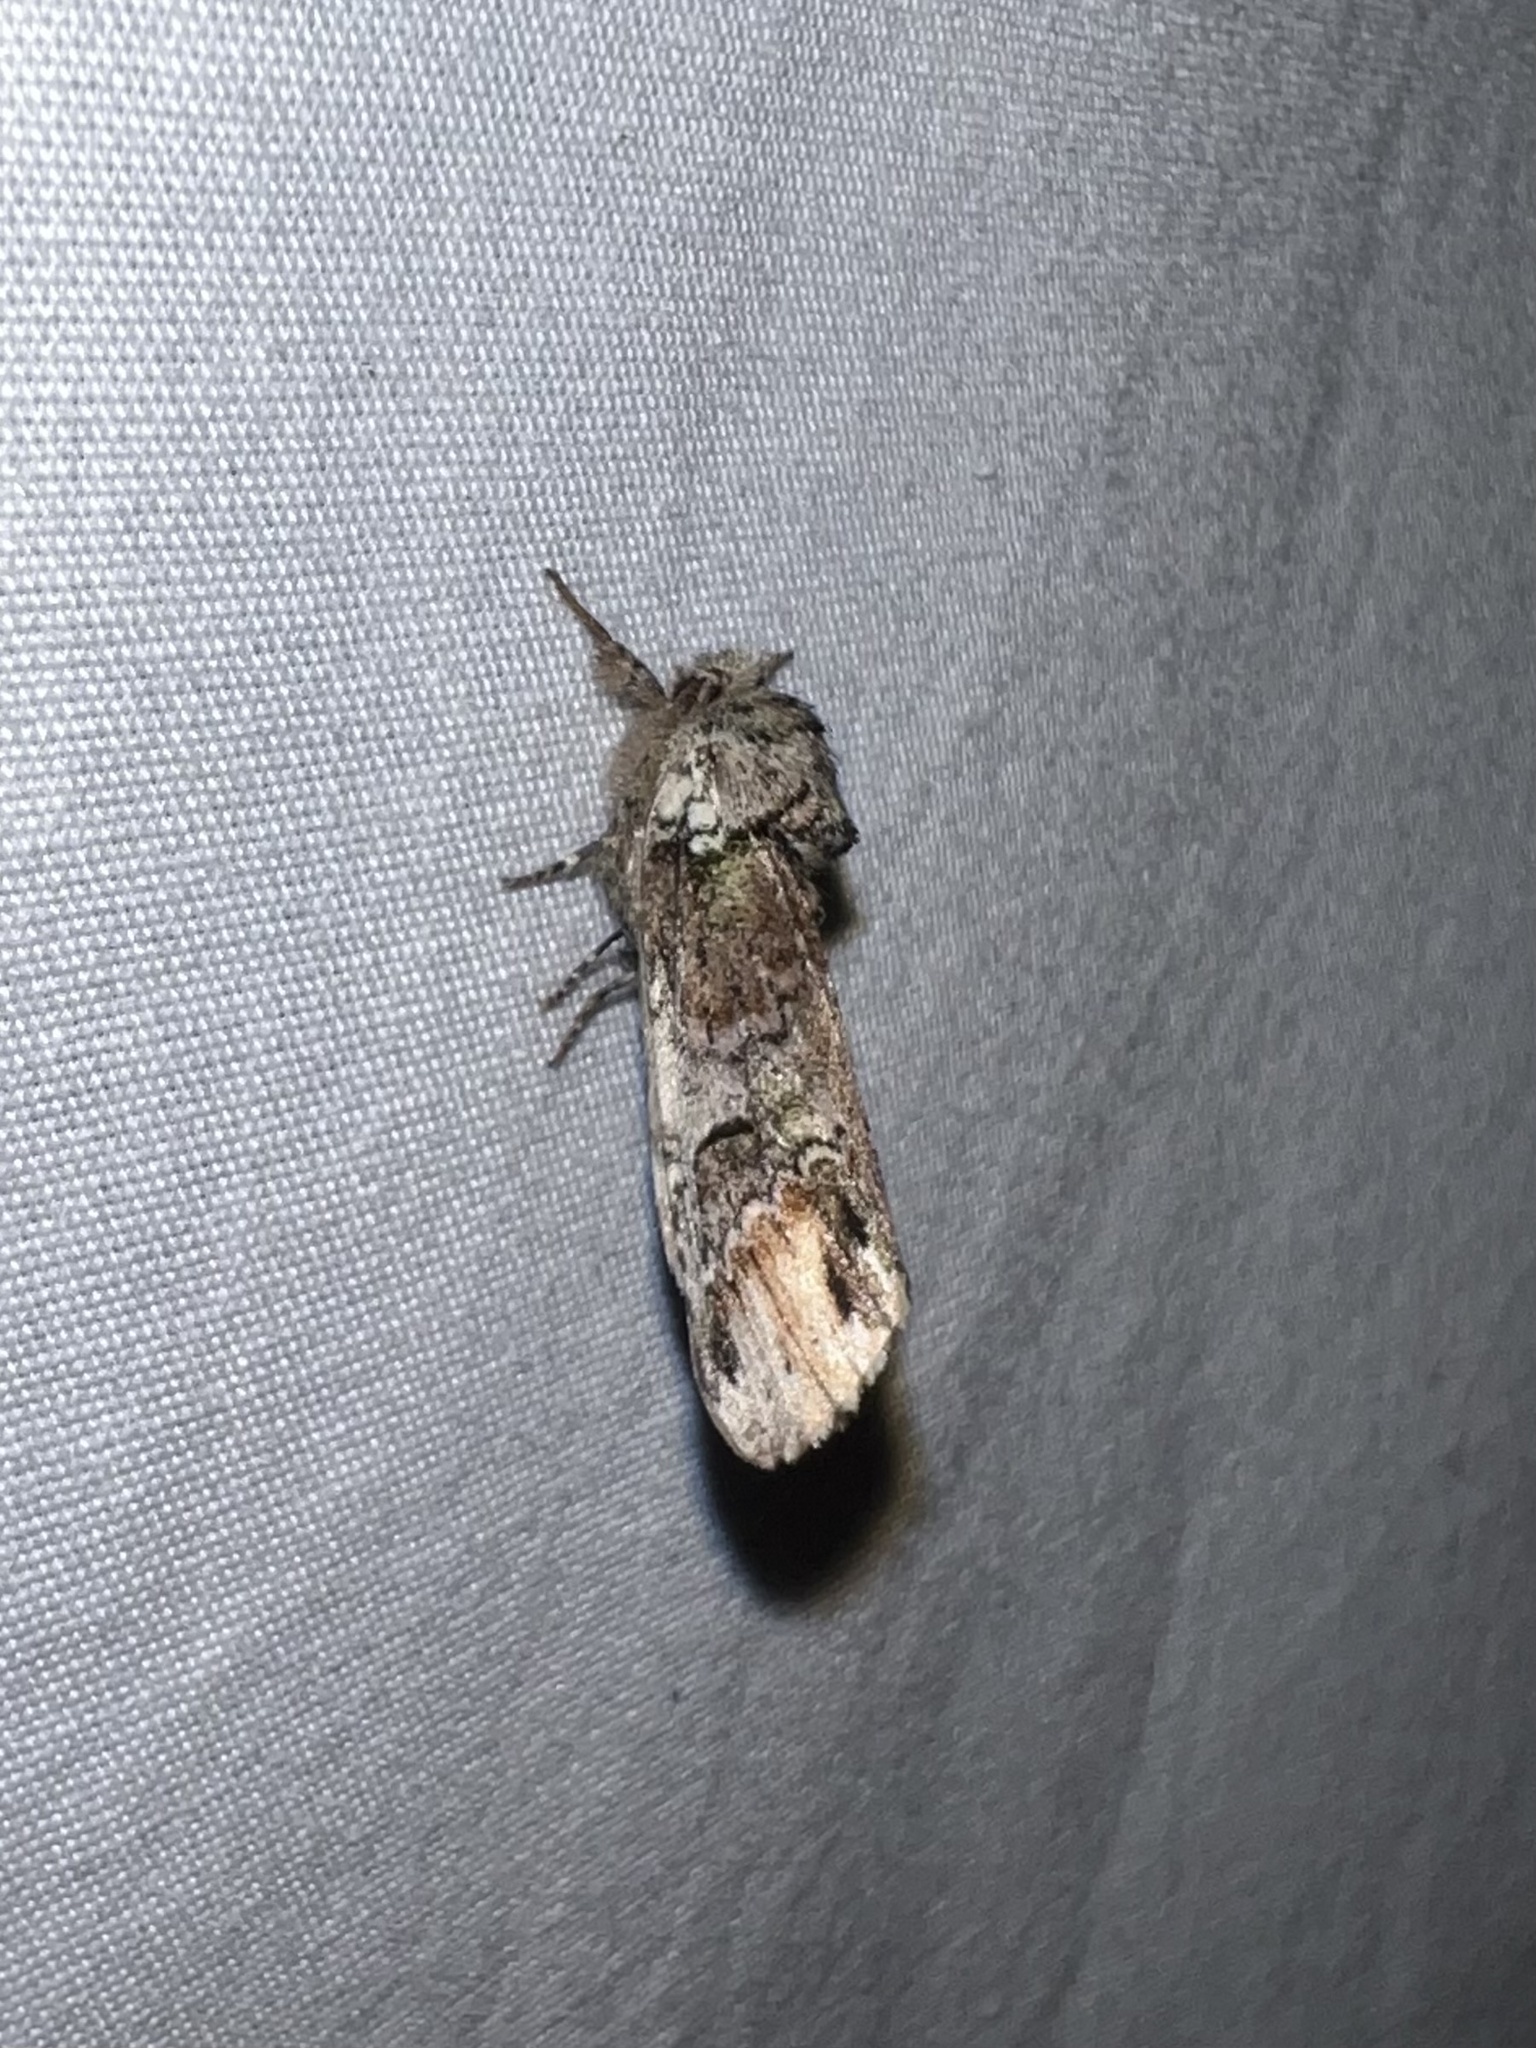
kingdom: Animalia
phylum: Arthropoda
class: Insecta
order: Lepidoptera
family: Notodontidae
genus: Schizura
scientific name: Schizura
